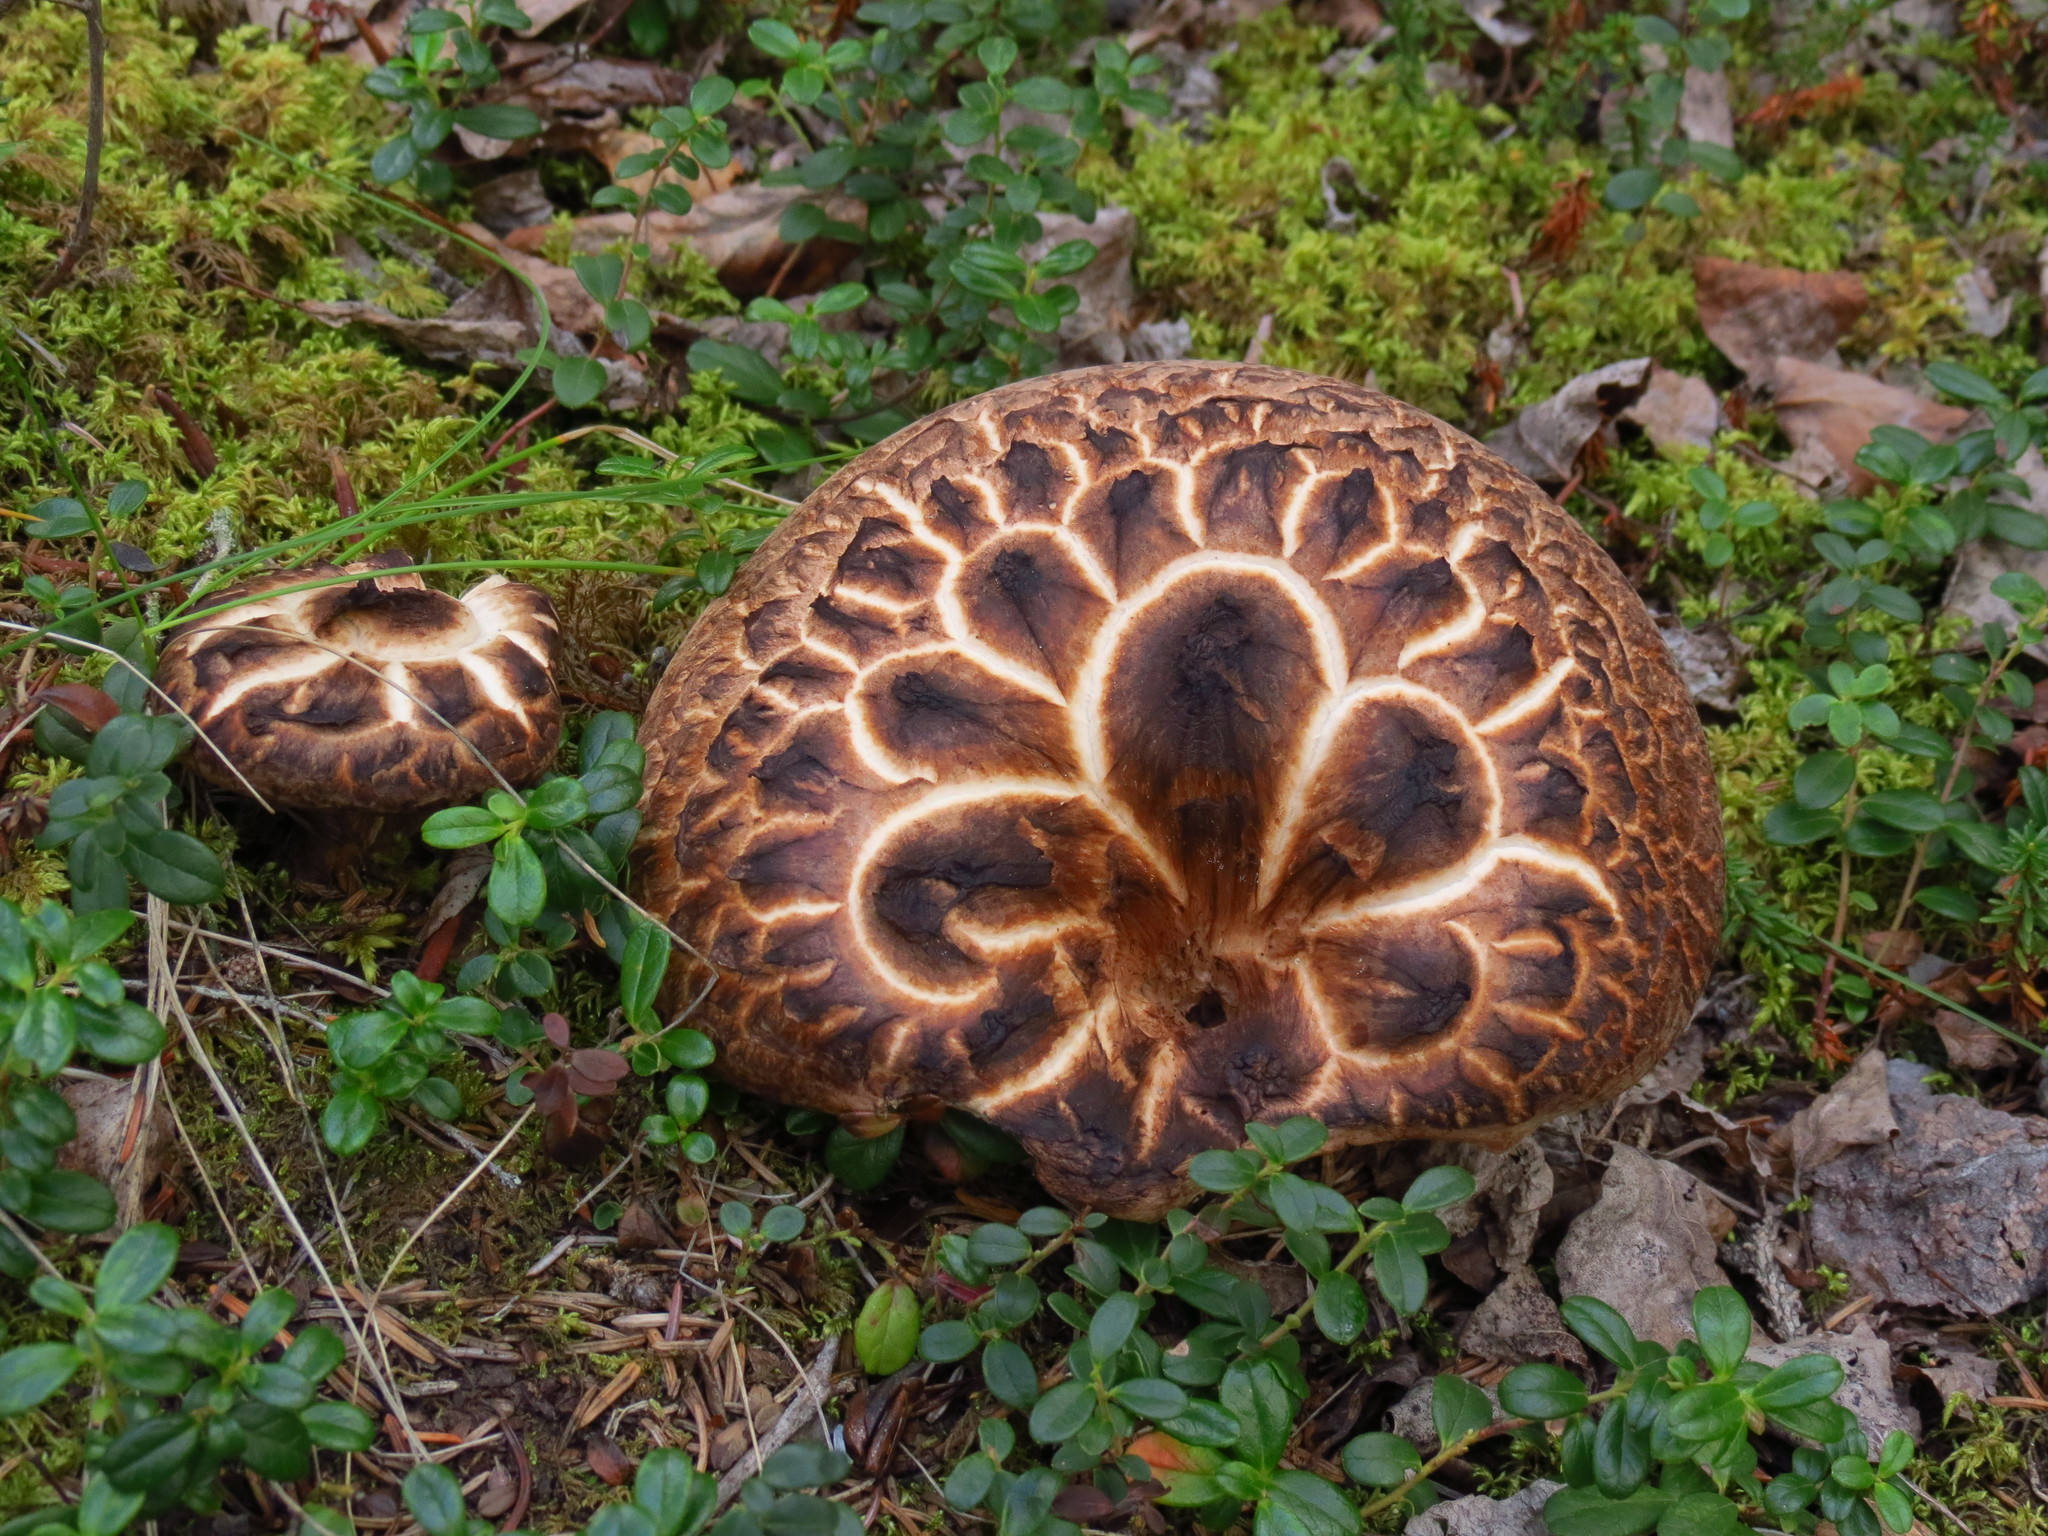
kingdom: Fungi
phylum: Basidiomycota
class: Agaricomycetes
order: Thelephorales
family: Bankeraceae
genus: Sarcodon
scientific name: Sarcodon imbricatus
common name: Shingled hedgehog
